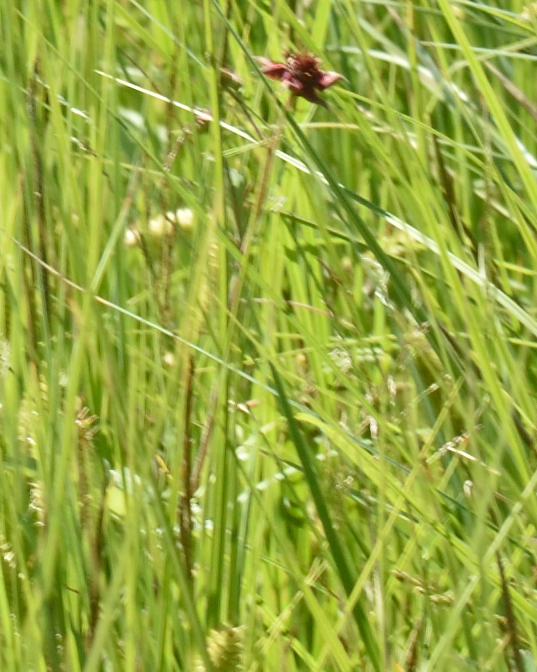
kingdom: Plantae
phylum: Tracheophyta
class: Magnoliopsida
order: Rosales
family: Rosaceae
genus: Comarum
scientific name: Comarum palustre
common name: Marsh cinquefoil
